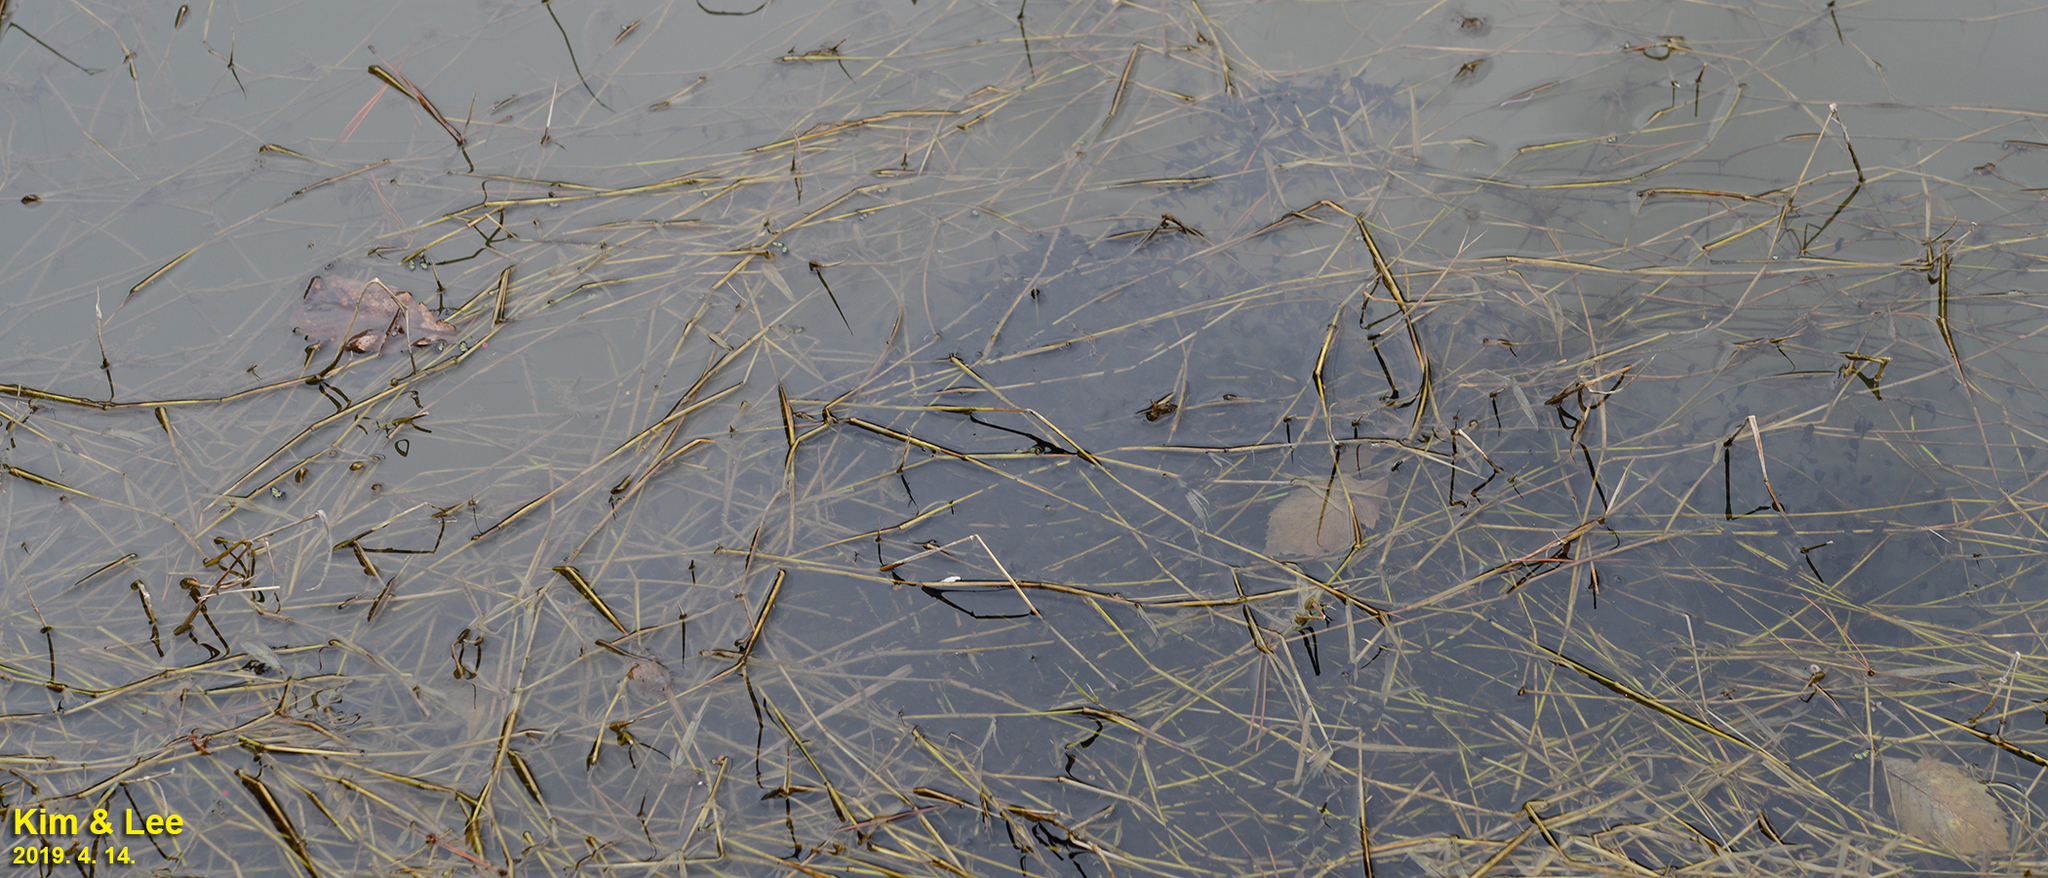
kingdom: Animalia
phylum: Chordata
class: Amphibia
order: Anura
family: Bufonidae
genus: Bufo
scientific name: Bufo gargarizans
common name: Asiatic toad
